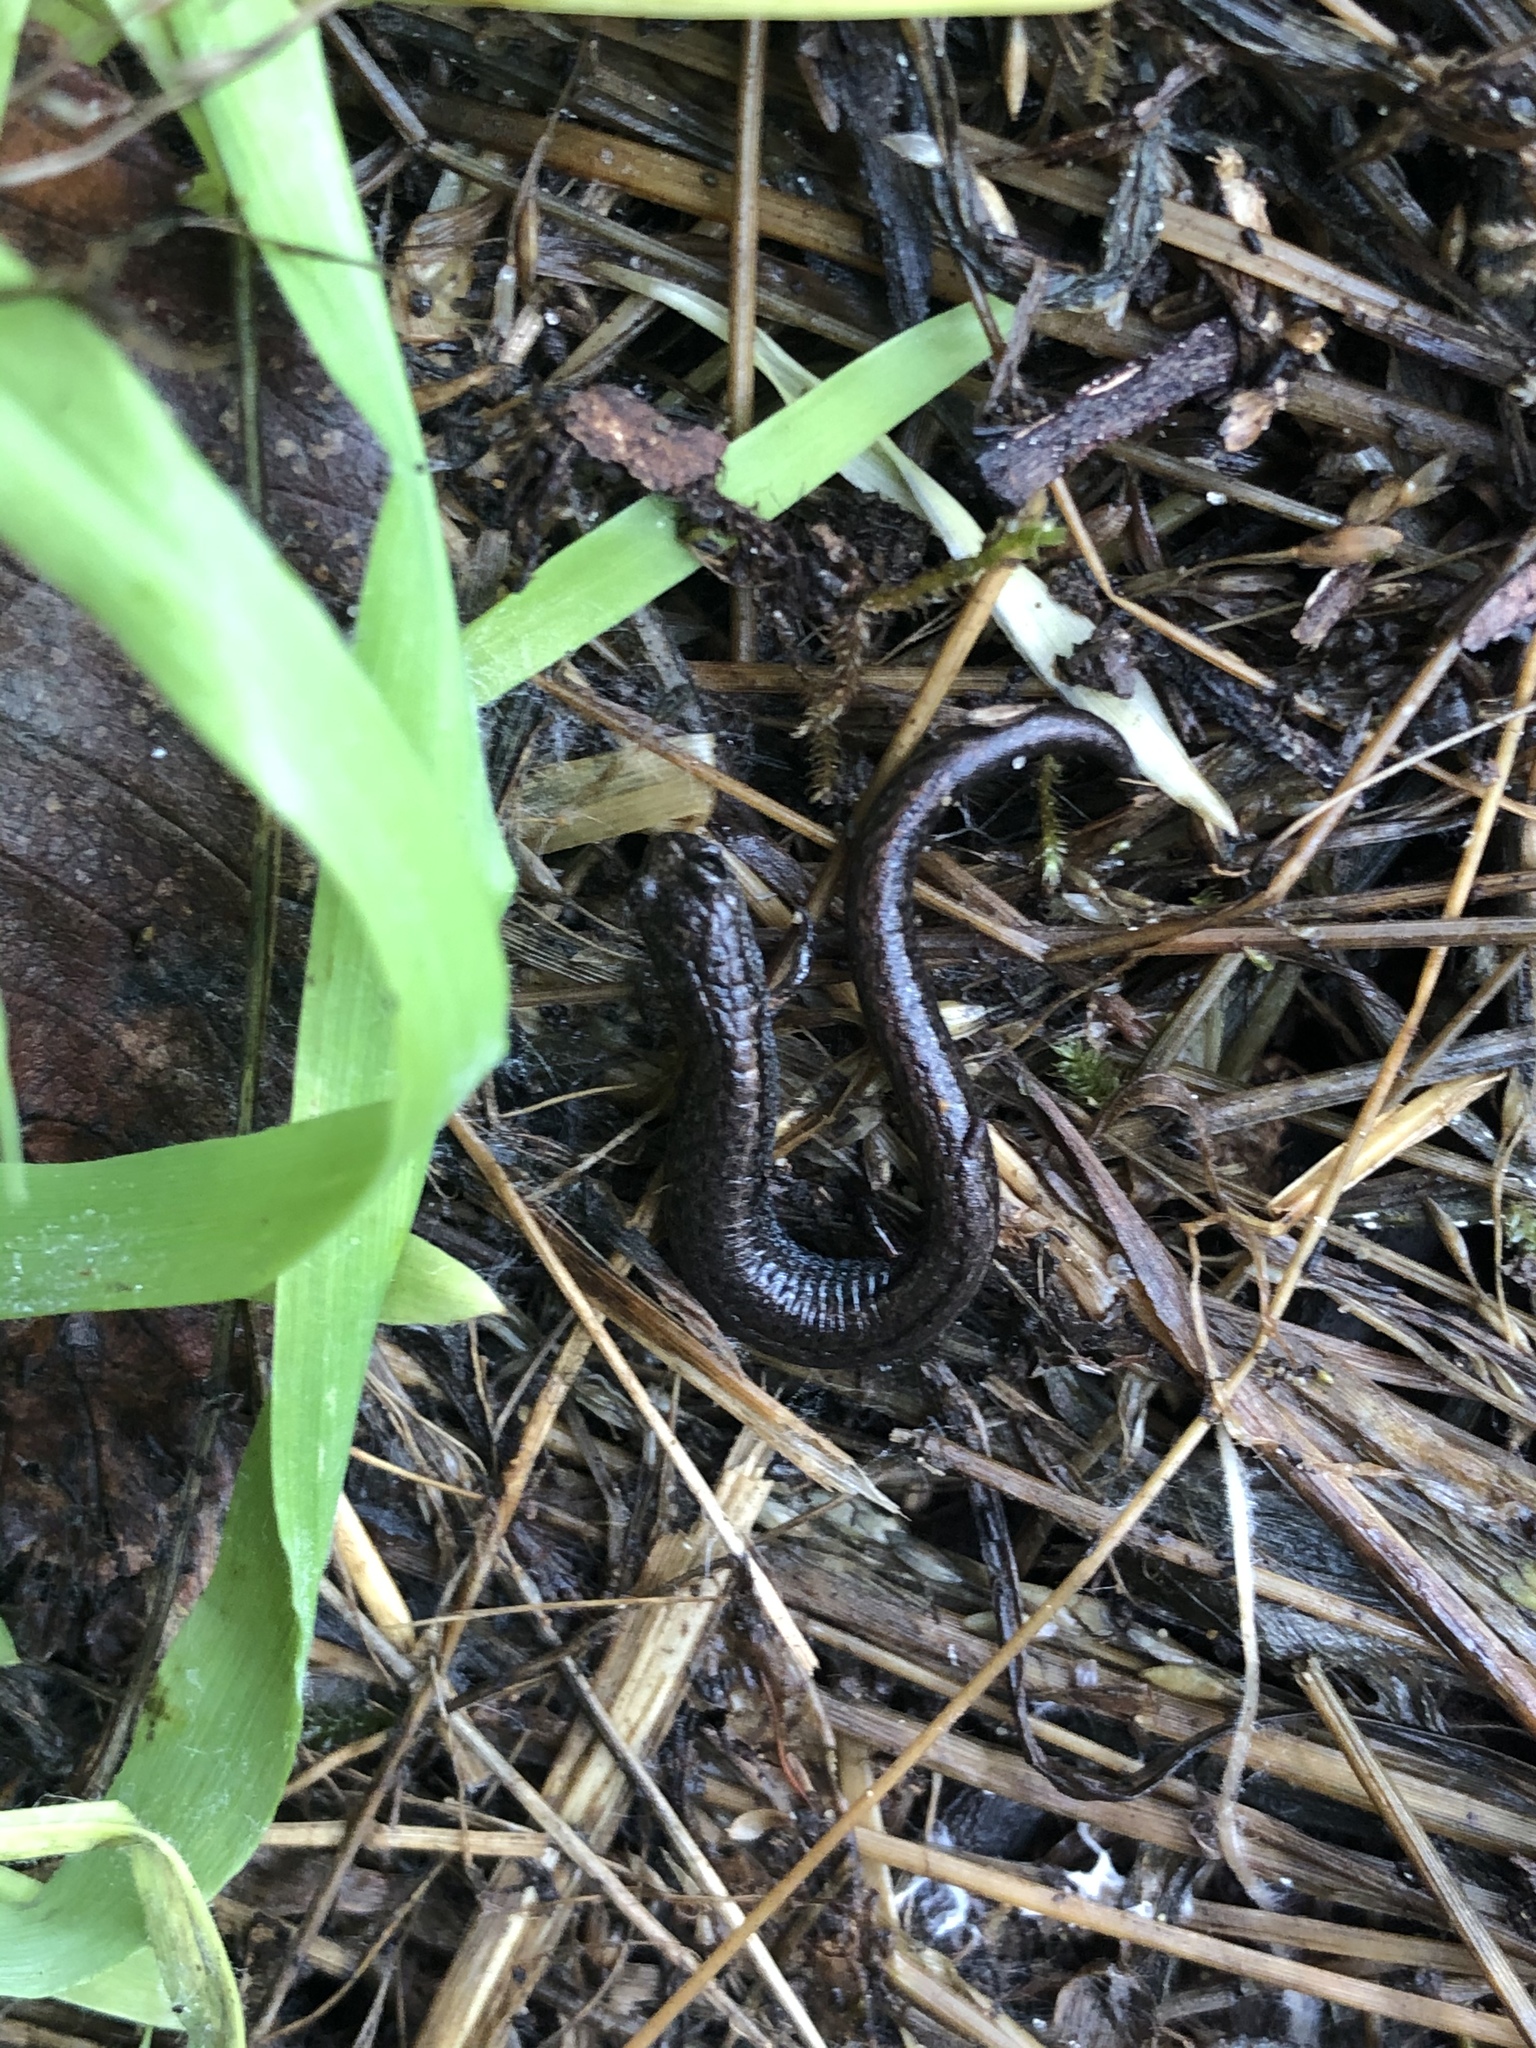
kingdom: Animalia
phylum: Chordata
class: Amphibia
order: Caudata
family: Plethodontidae
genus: Batrachoseps
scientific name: Batrachoseps attenuatus
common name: California slender salamander
